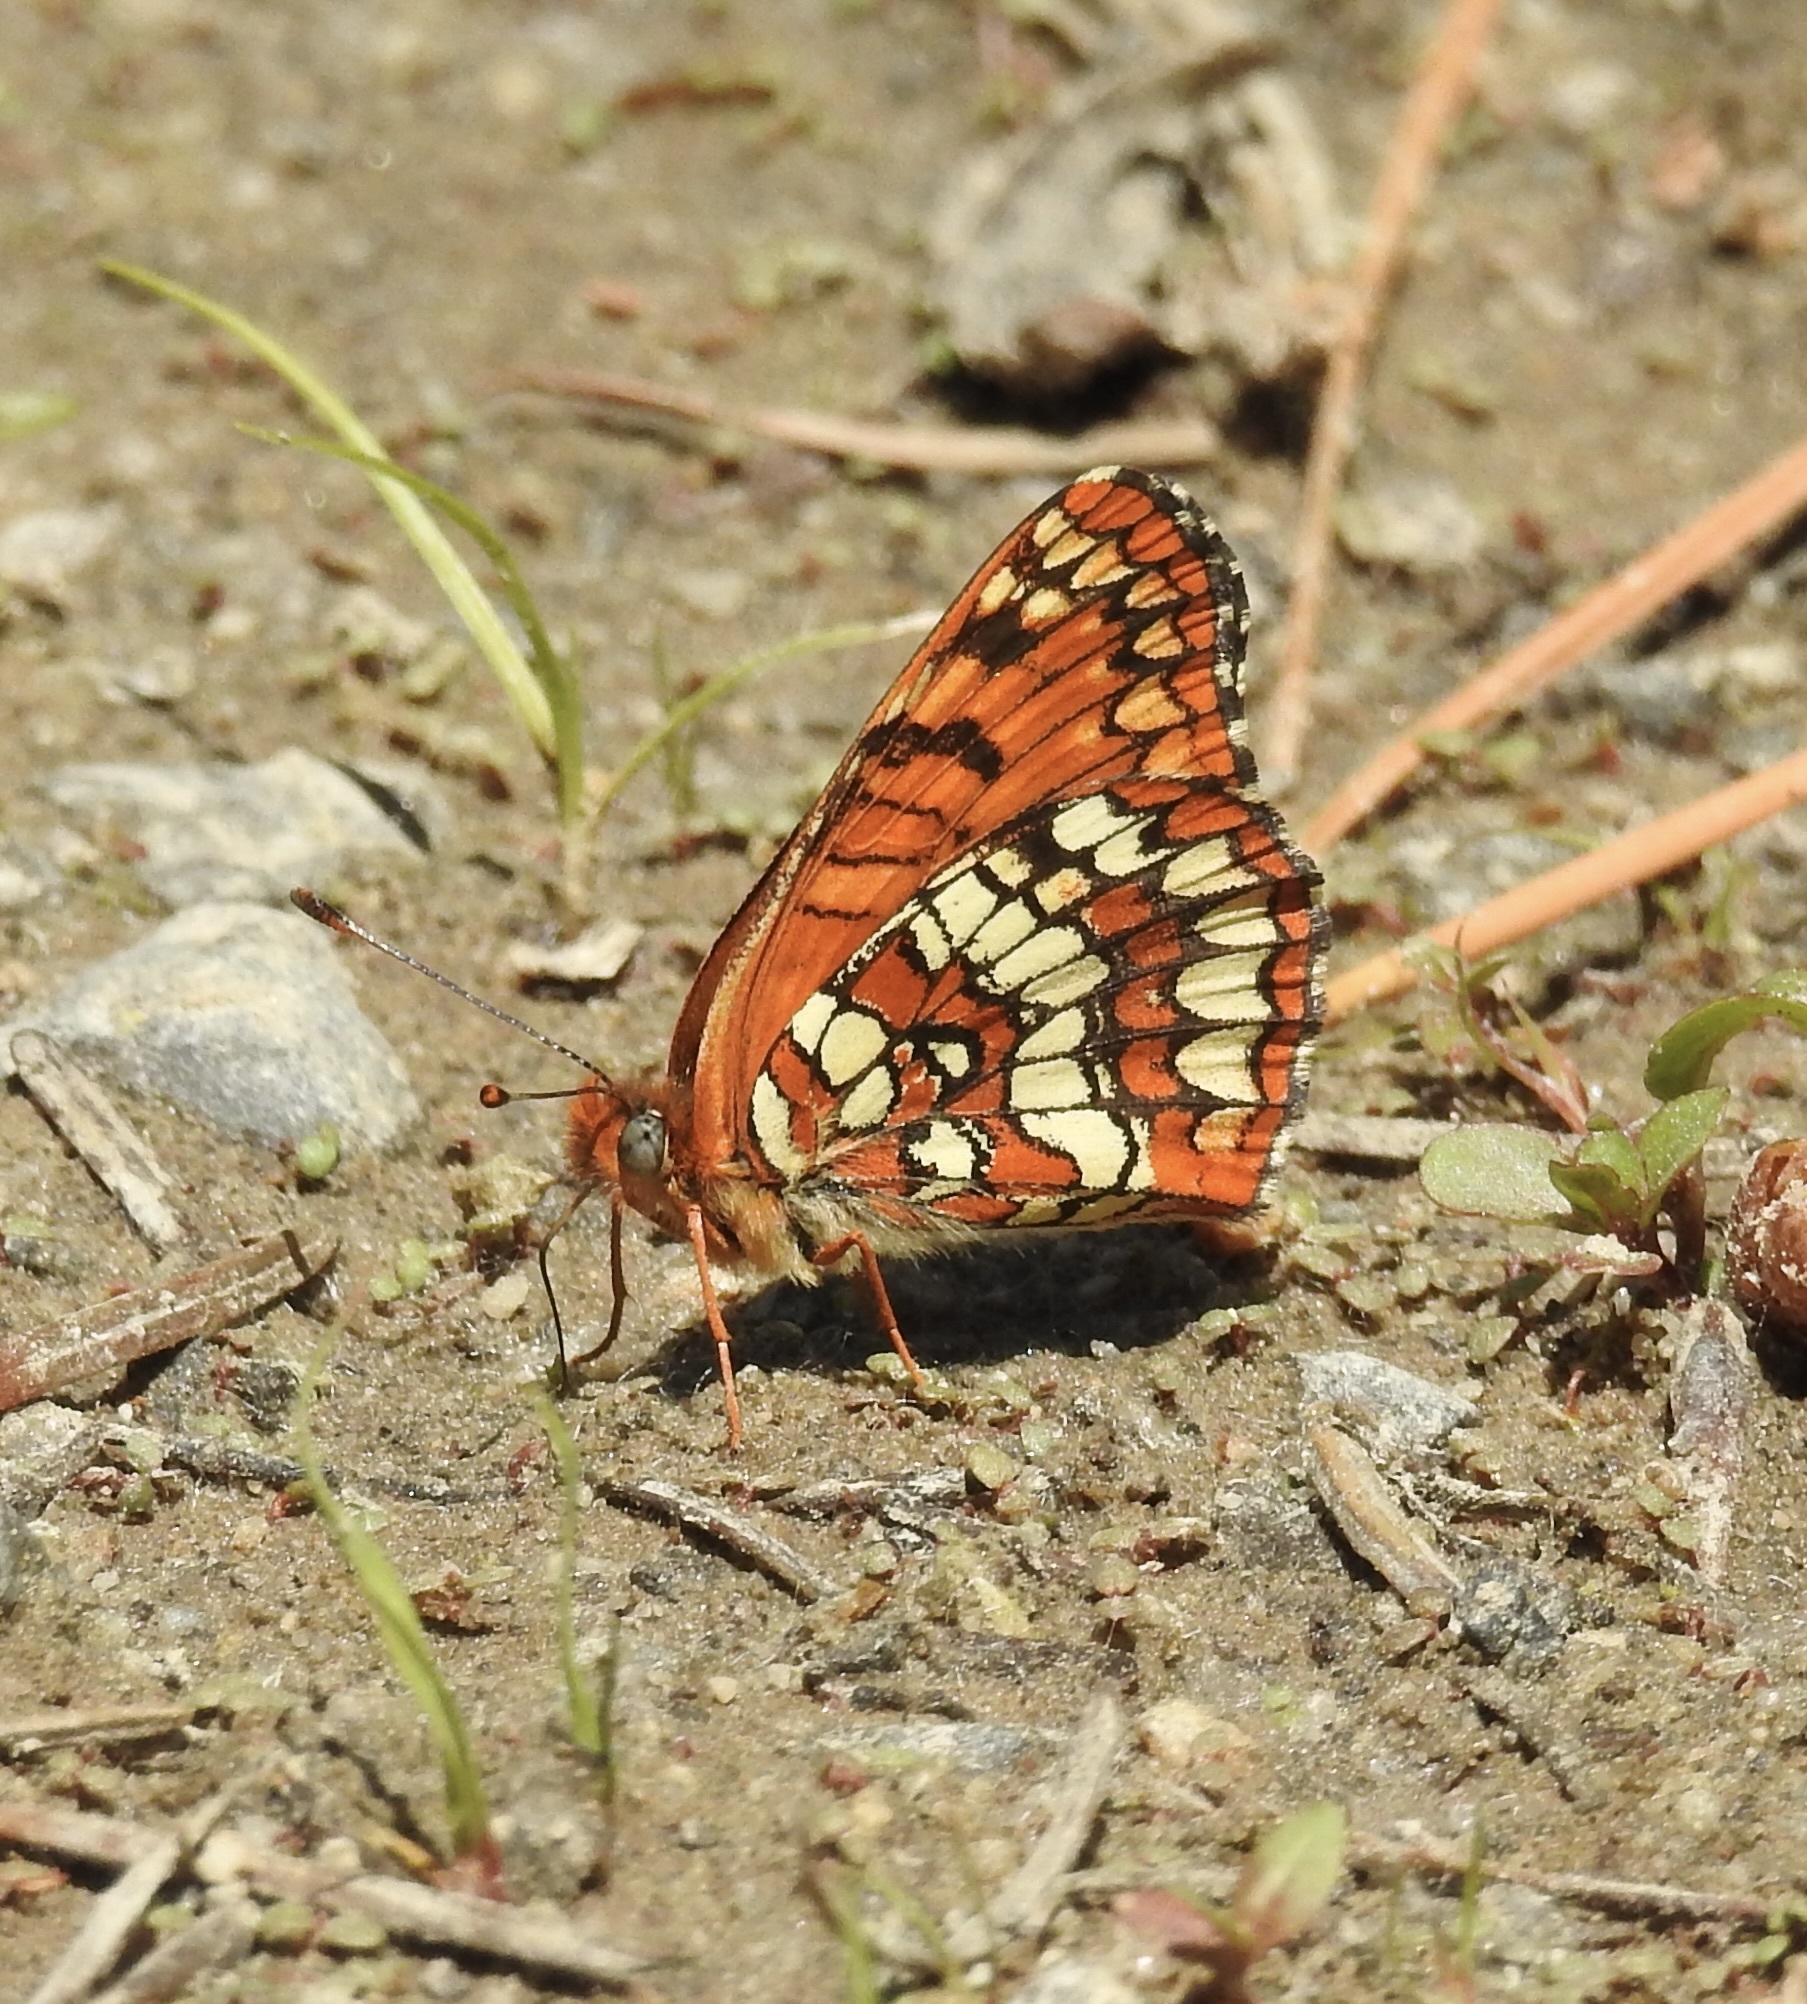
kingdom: Animalia
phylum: Arthropoda
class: Insecta
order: Lepidoptera
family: Nymphalidae
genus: Chlosyne
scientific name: Chlosyne palla
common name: Northern checkerspot
